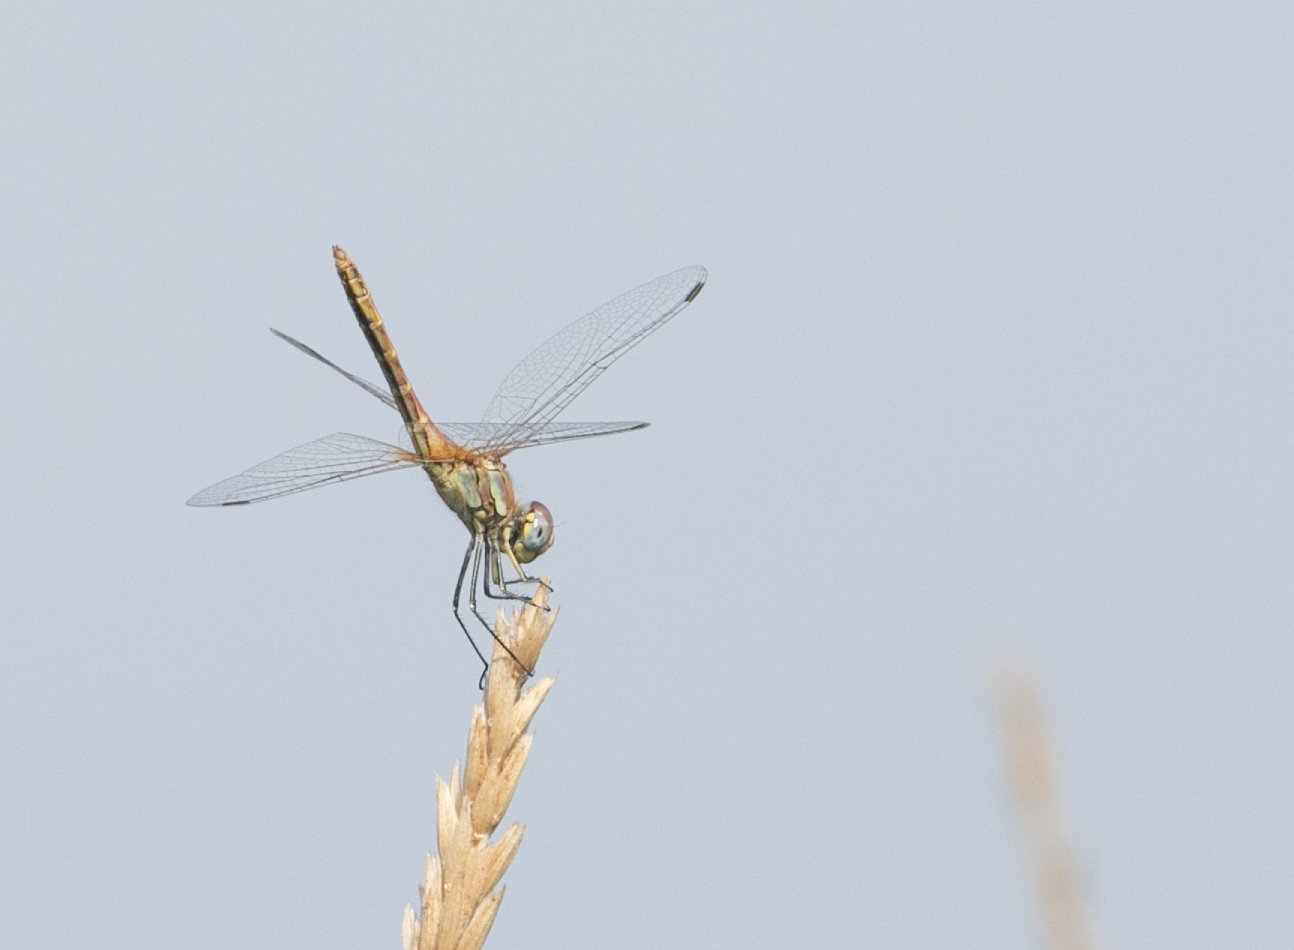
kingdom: Animalia
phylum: Arthropoda
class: Insecta
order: Odonata
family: Libellulidae
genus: Sympetrum
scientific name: Sympetrum fonscolombii
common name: Red-veined darter
